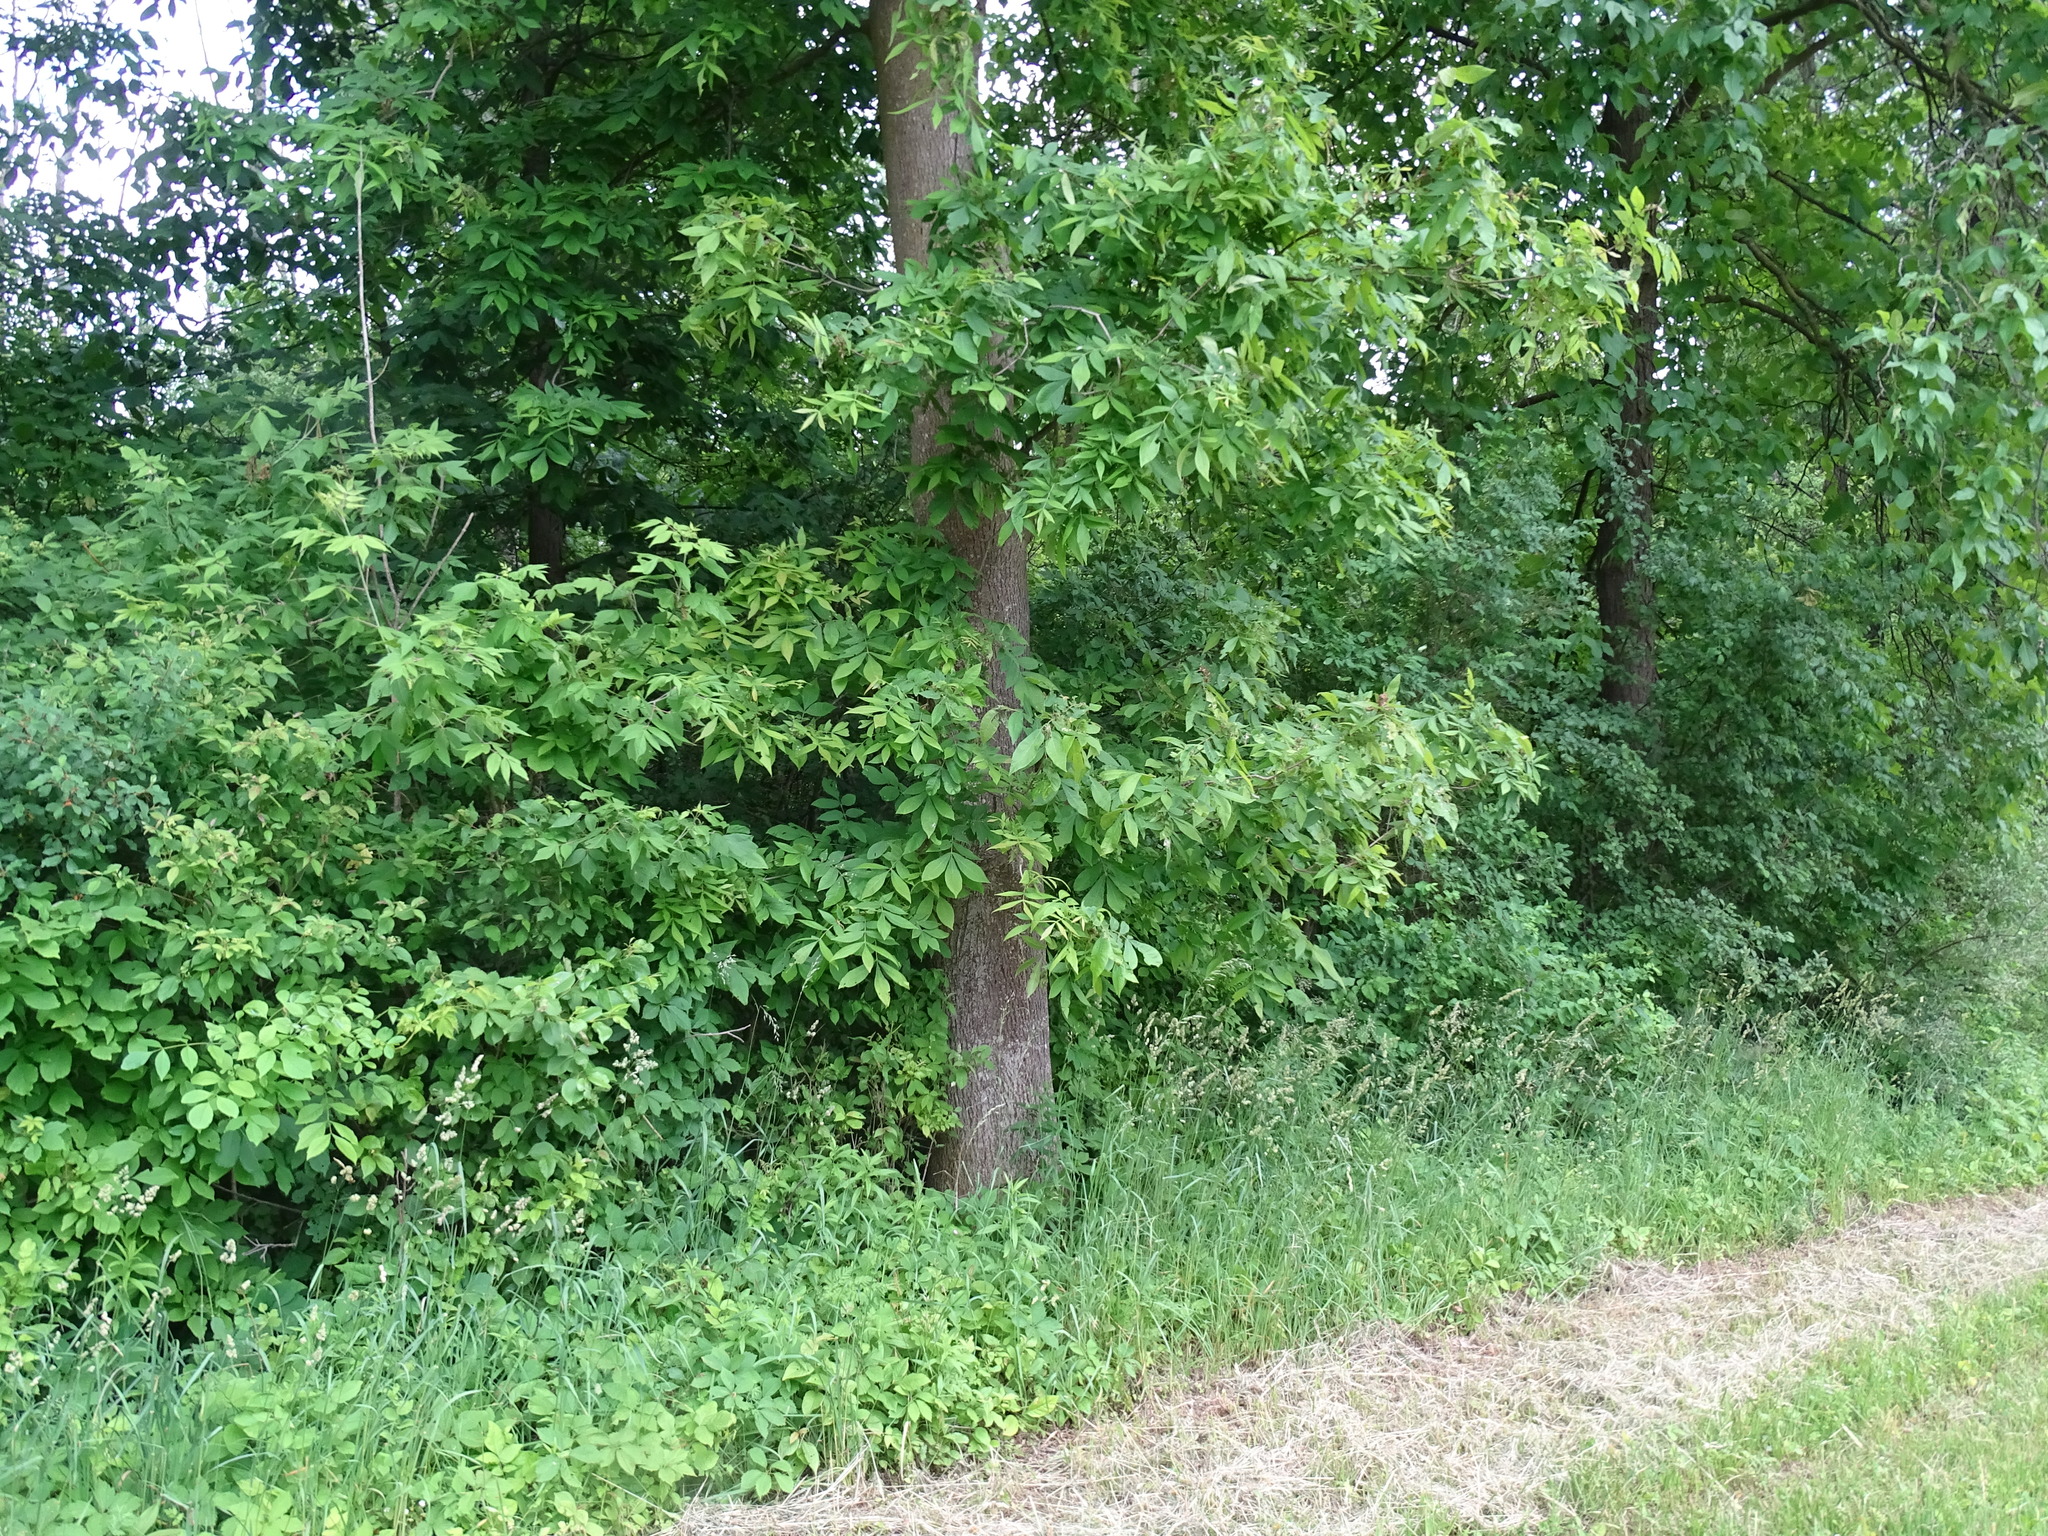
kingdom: Plantae
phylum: Tracheophyta
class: Magnoliopsida
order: Fagales
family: Juglandaceae
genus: Carya
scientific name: Carya cordiformis
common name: Bitternut hickory
